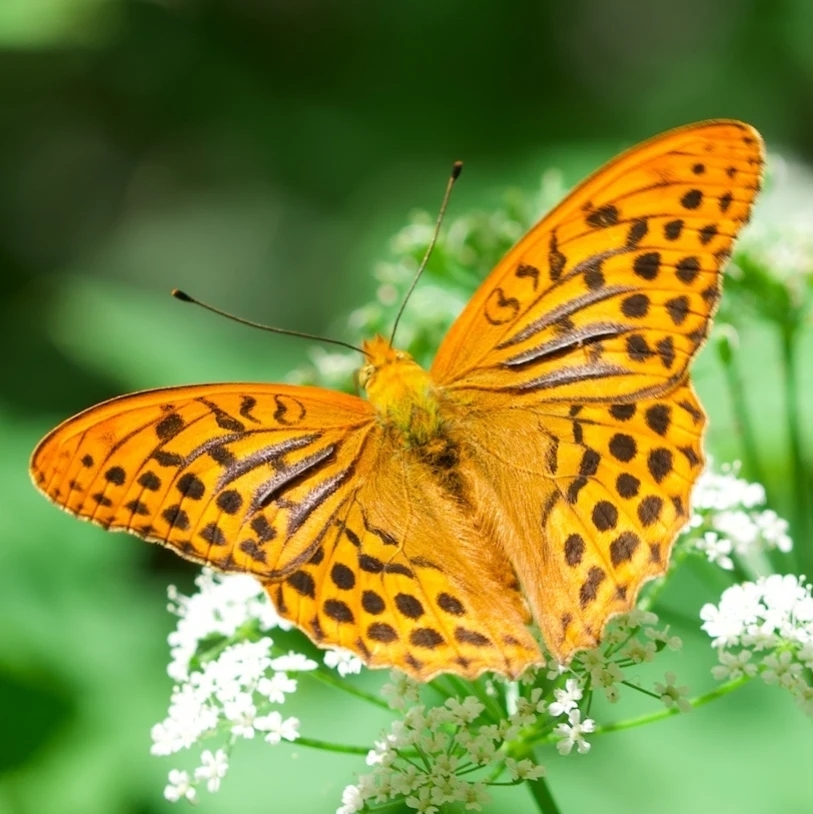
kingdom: Animalia
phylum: Arthropoda
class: Insecta
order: Lepidoptera
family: Nymphalidae
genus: Argynnis
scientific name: Argynnis paphia
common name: Silver-washed fritillary
